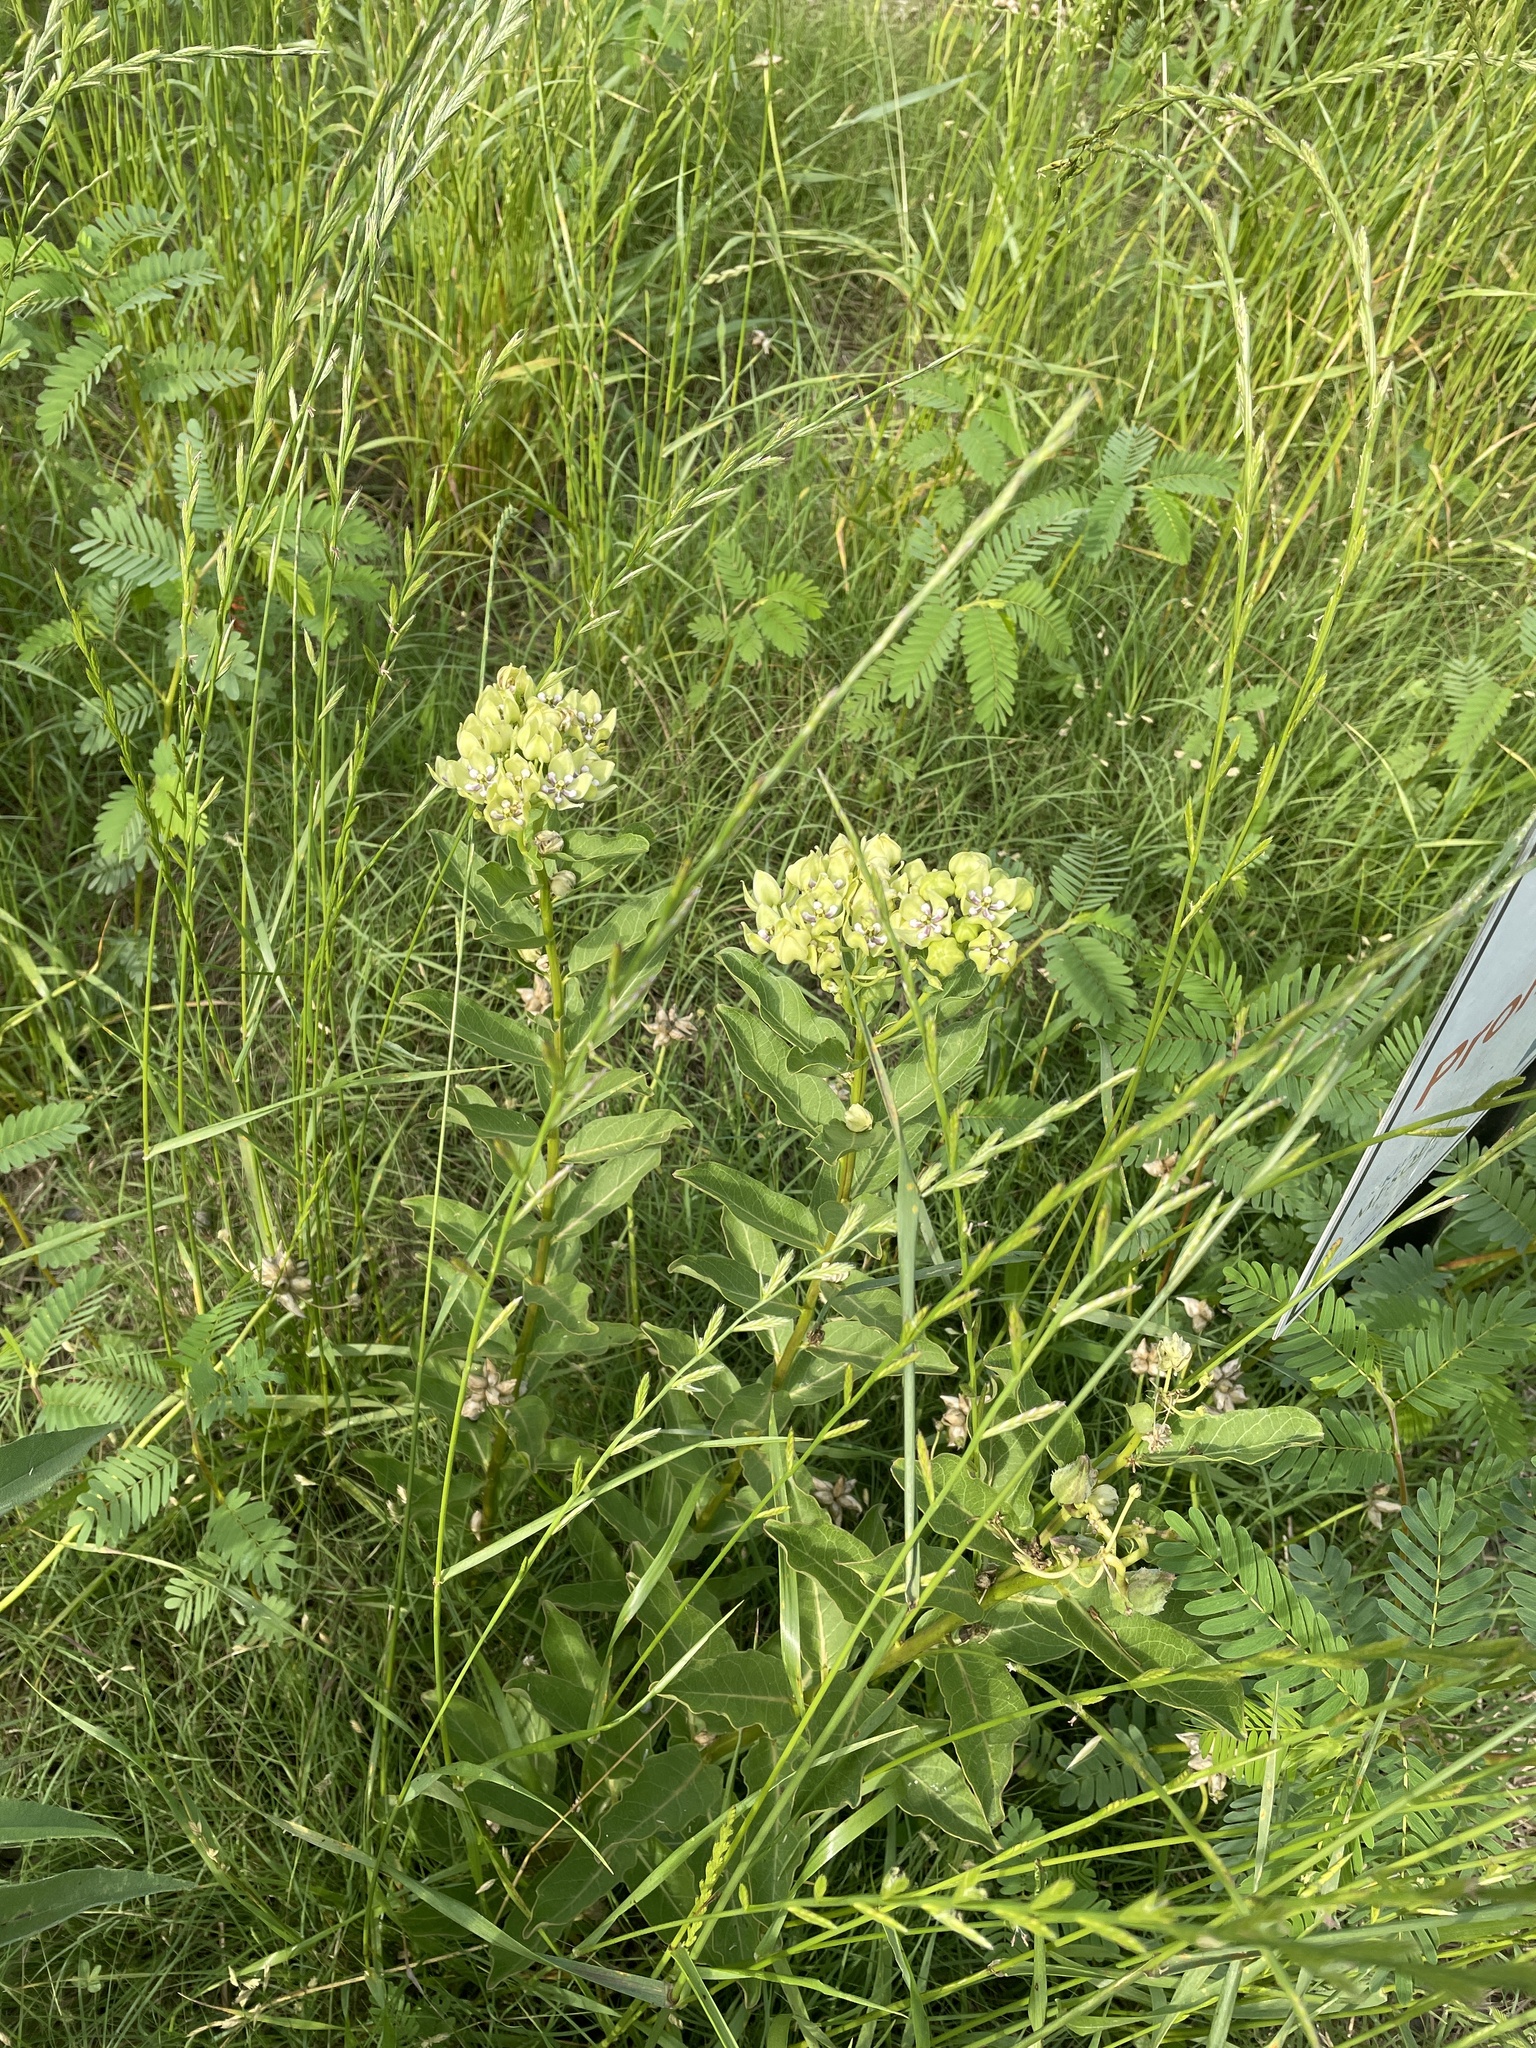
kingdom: Plantae
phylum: Tracheophyta
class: Magnoliopsida
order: Gentianales
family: Apocynaceae
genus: Asclepias
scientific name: Asclepias viridis
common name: Antelope-horns
